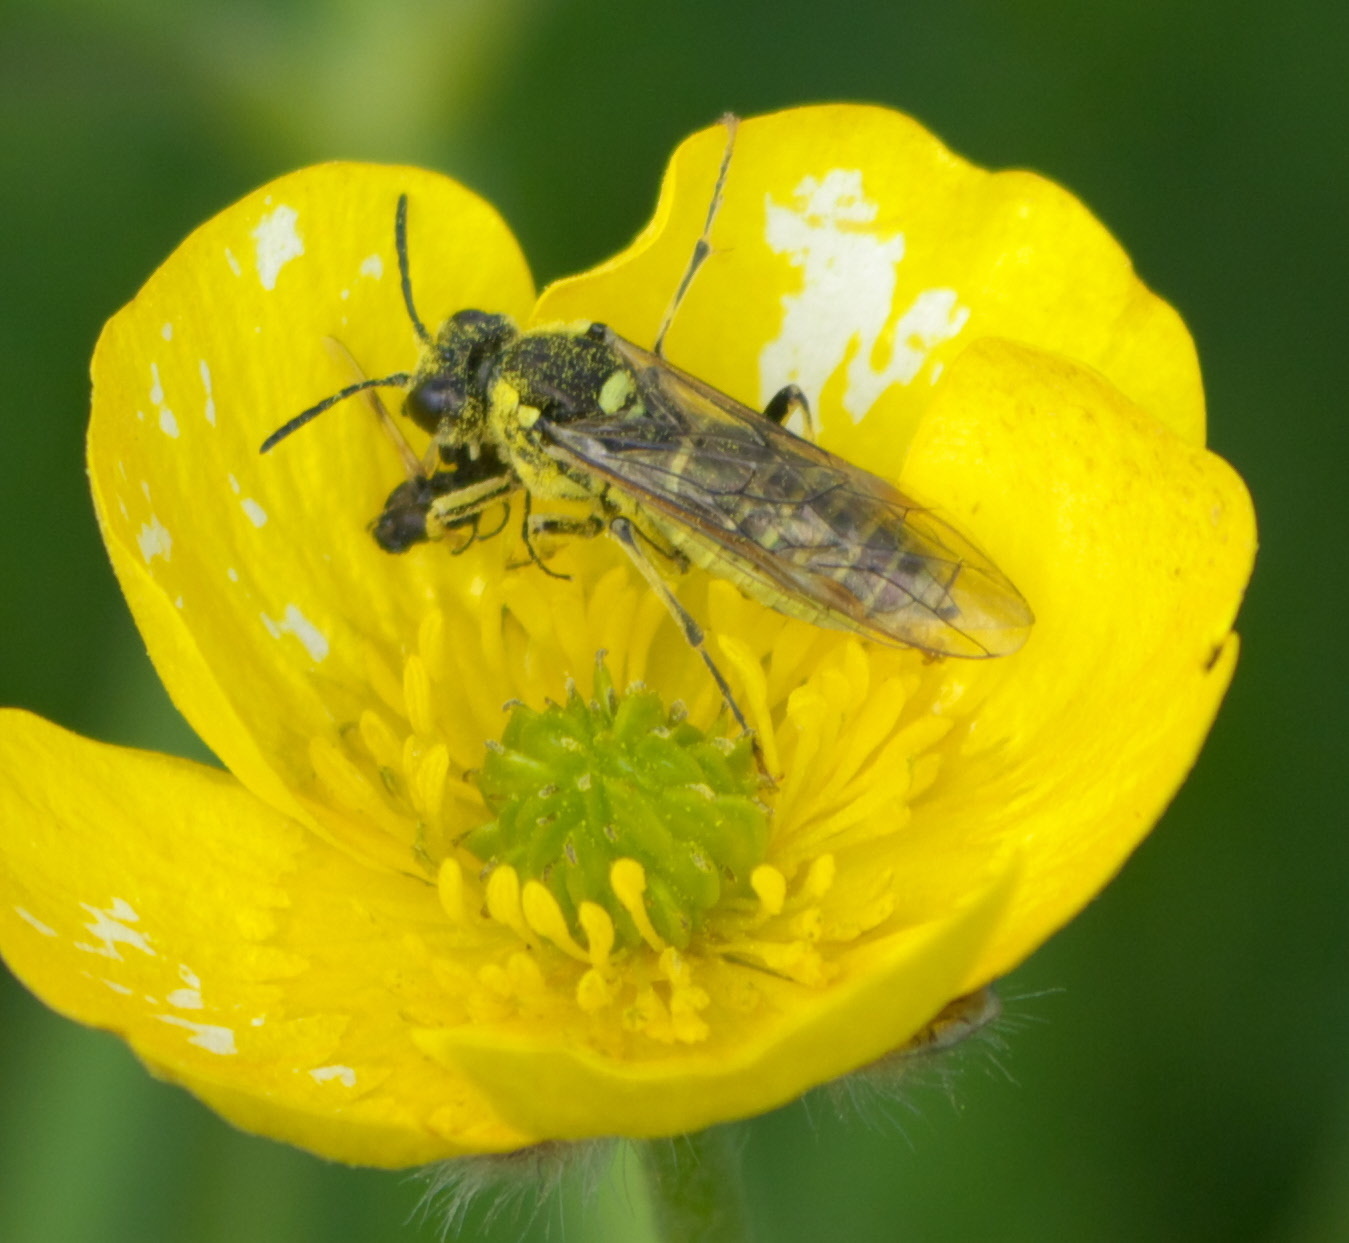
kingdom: Animalia
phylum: Arthropoda
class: Insecta
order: Hymenoptera
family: Tenthredinidae
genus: Tenthredo
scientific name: Tenthredo arcuata
